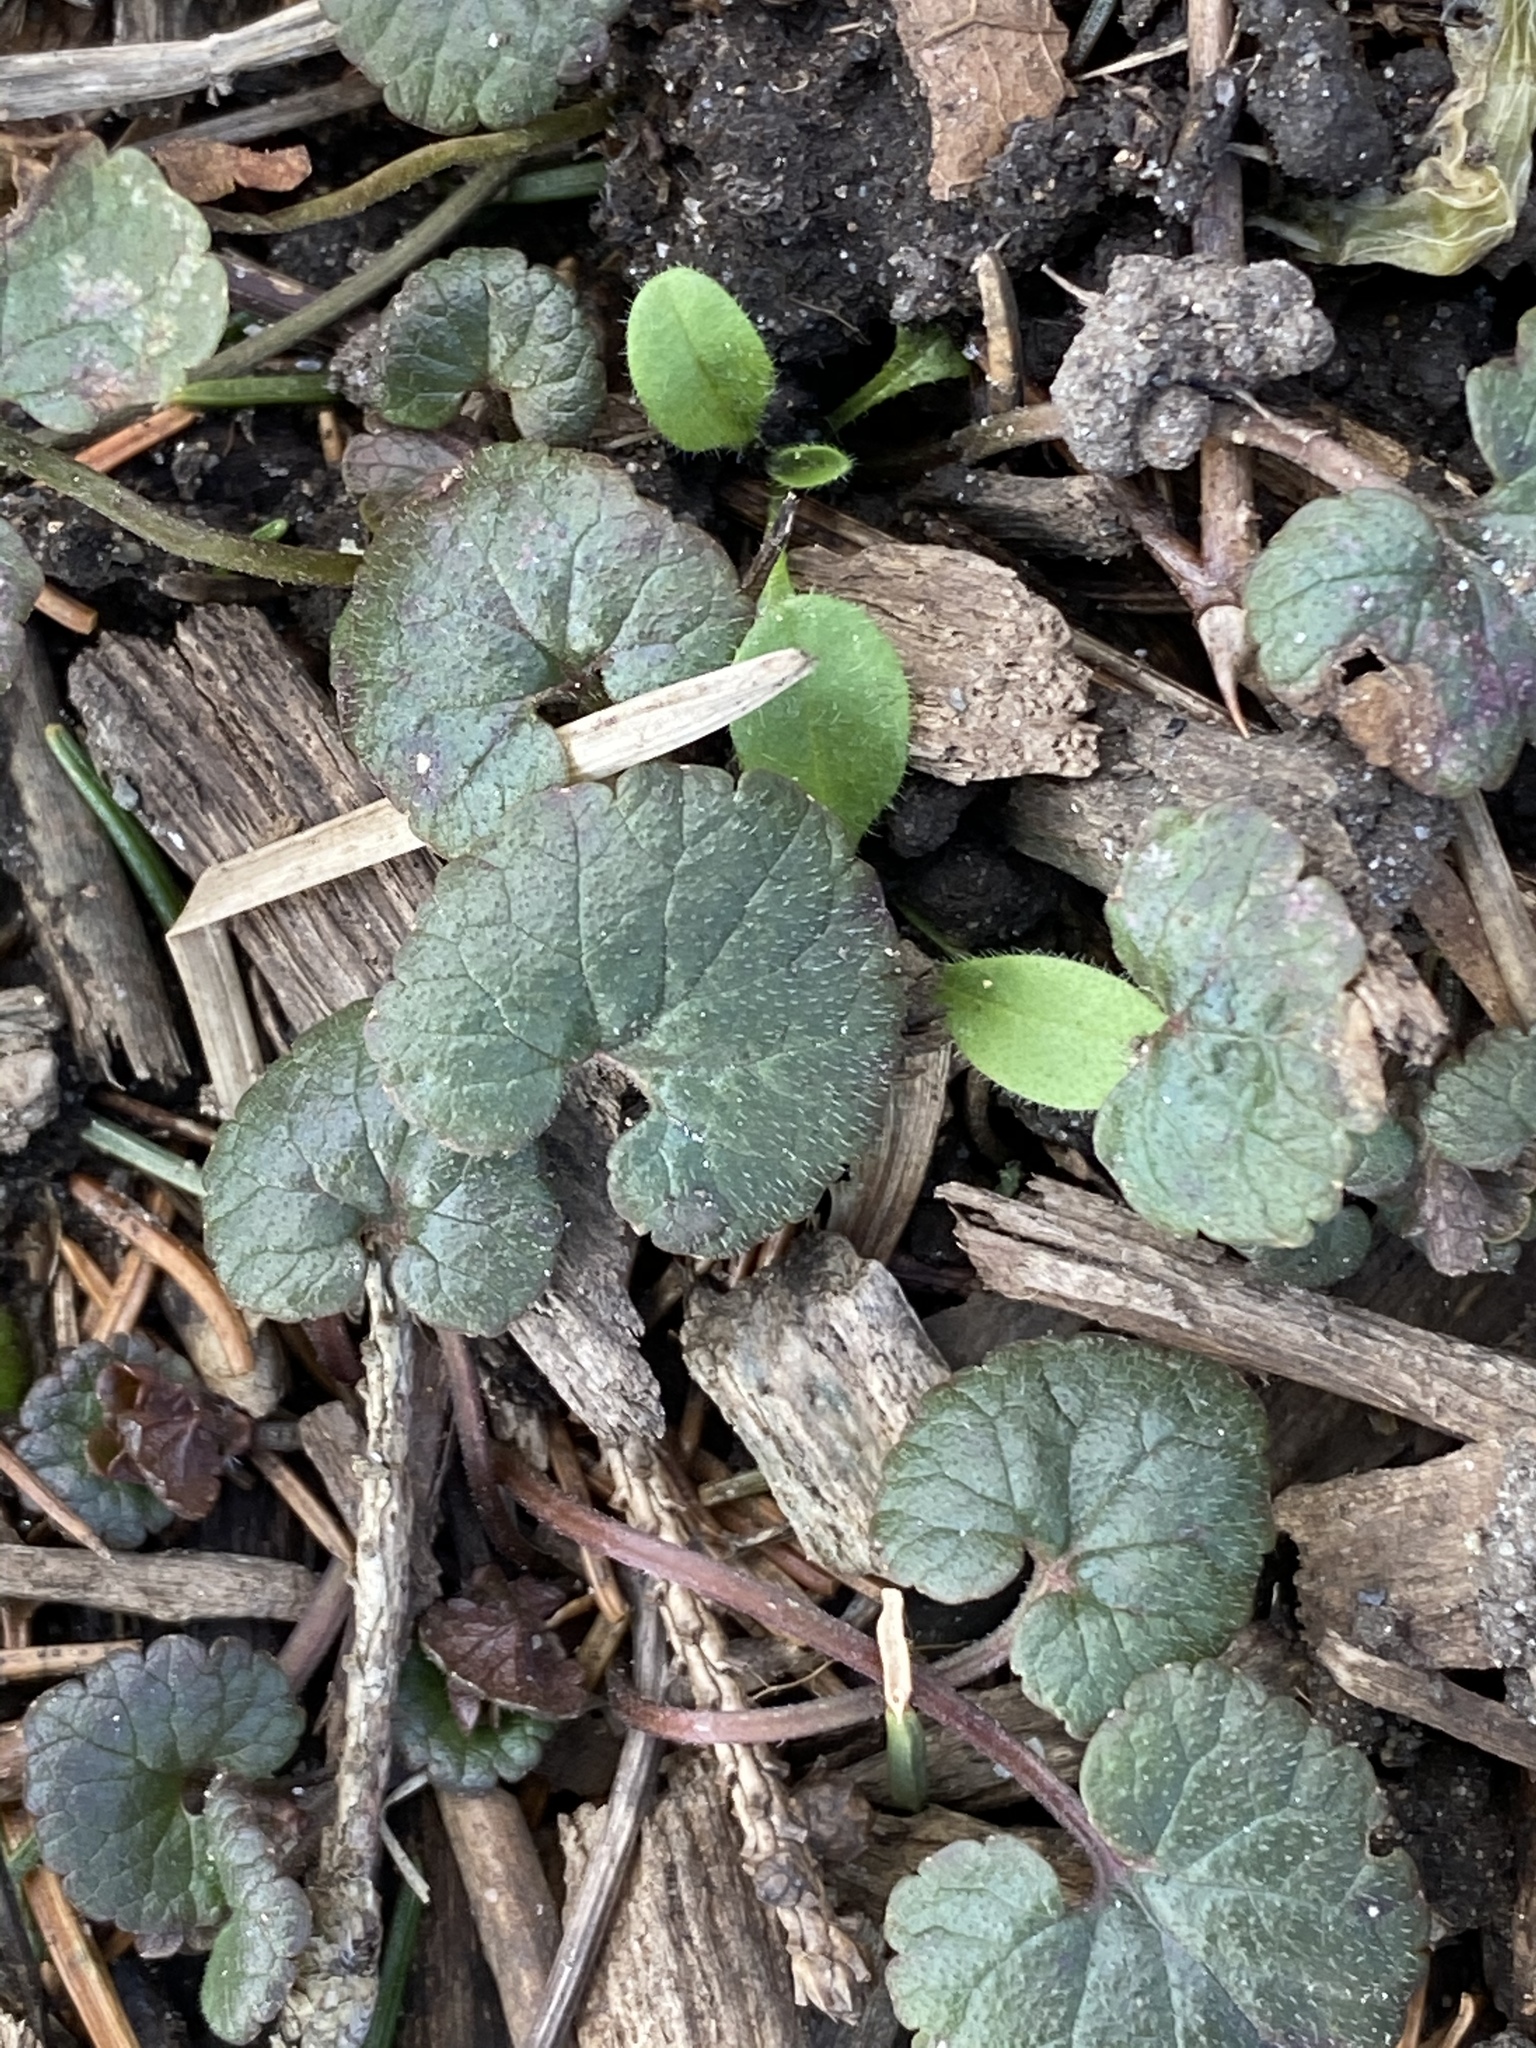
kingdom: Plantae
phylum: Tracheophyta
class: Magnoliopsida
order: Lamiales
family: Lamiaceae
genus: Glechoma
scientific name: Glechoma hederacea
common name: Ground ivy
